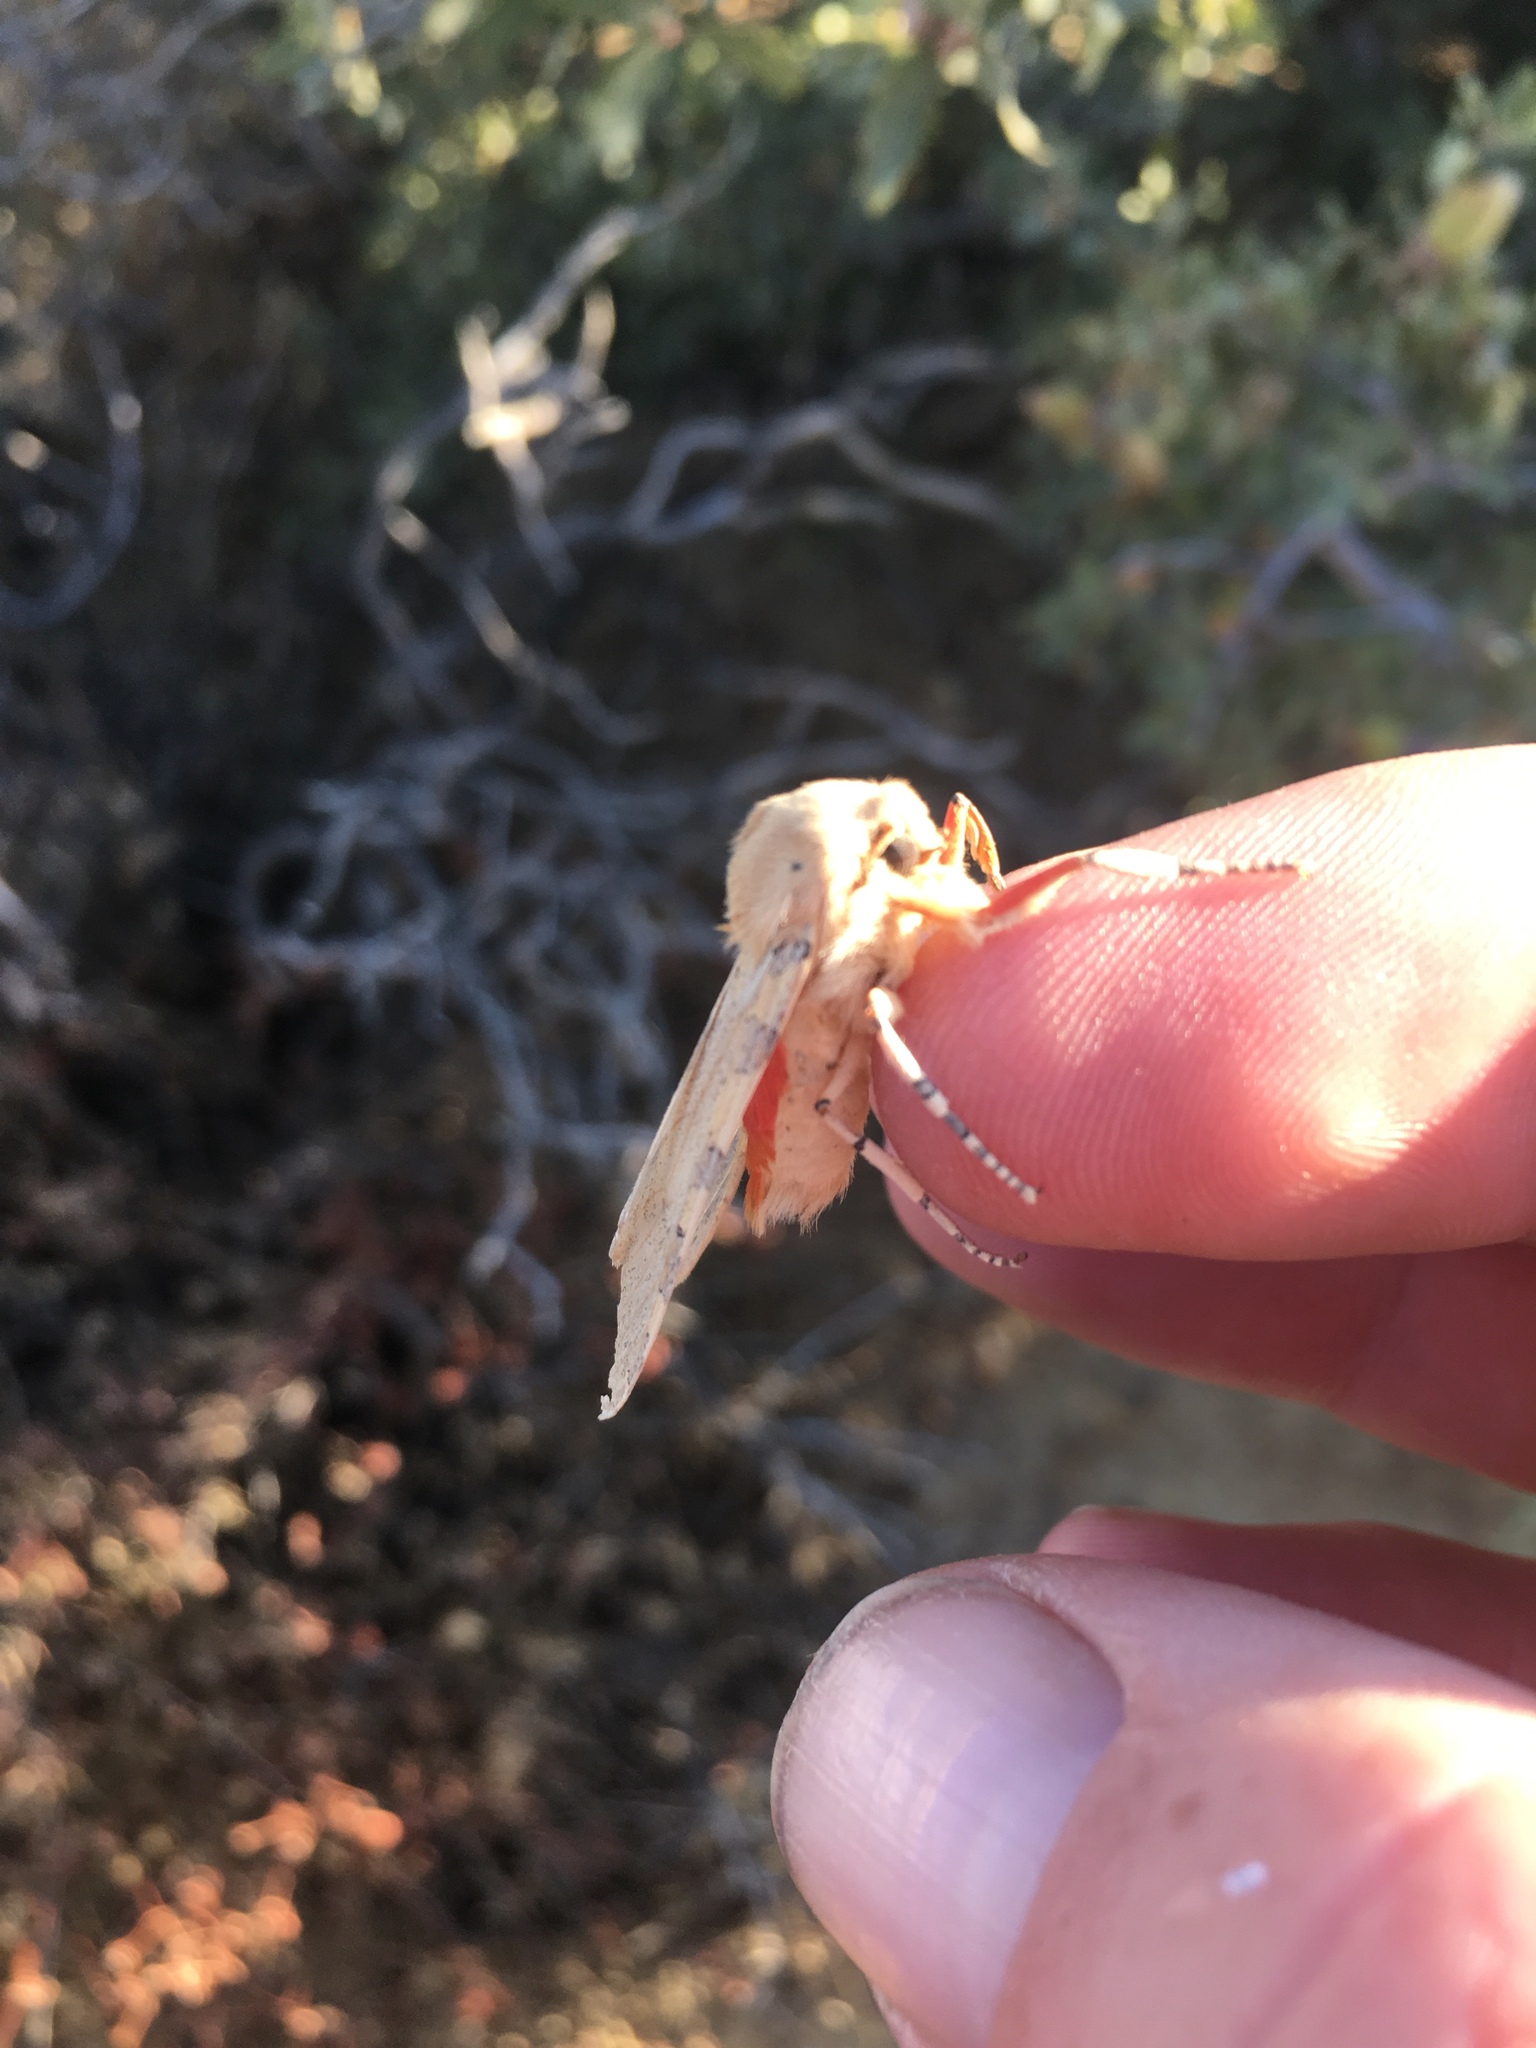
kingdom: Animalia
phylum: Arthropoda
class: Insecta
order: Lepidoptera
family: Erebidae
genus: Hemihyalea
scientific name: Hemihyalea edwardsii
